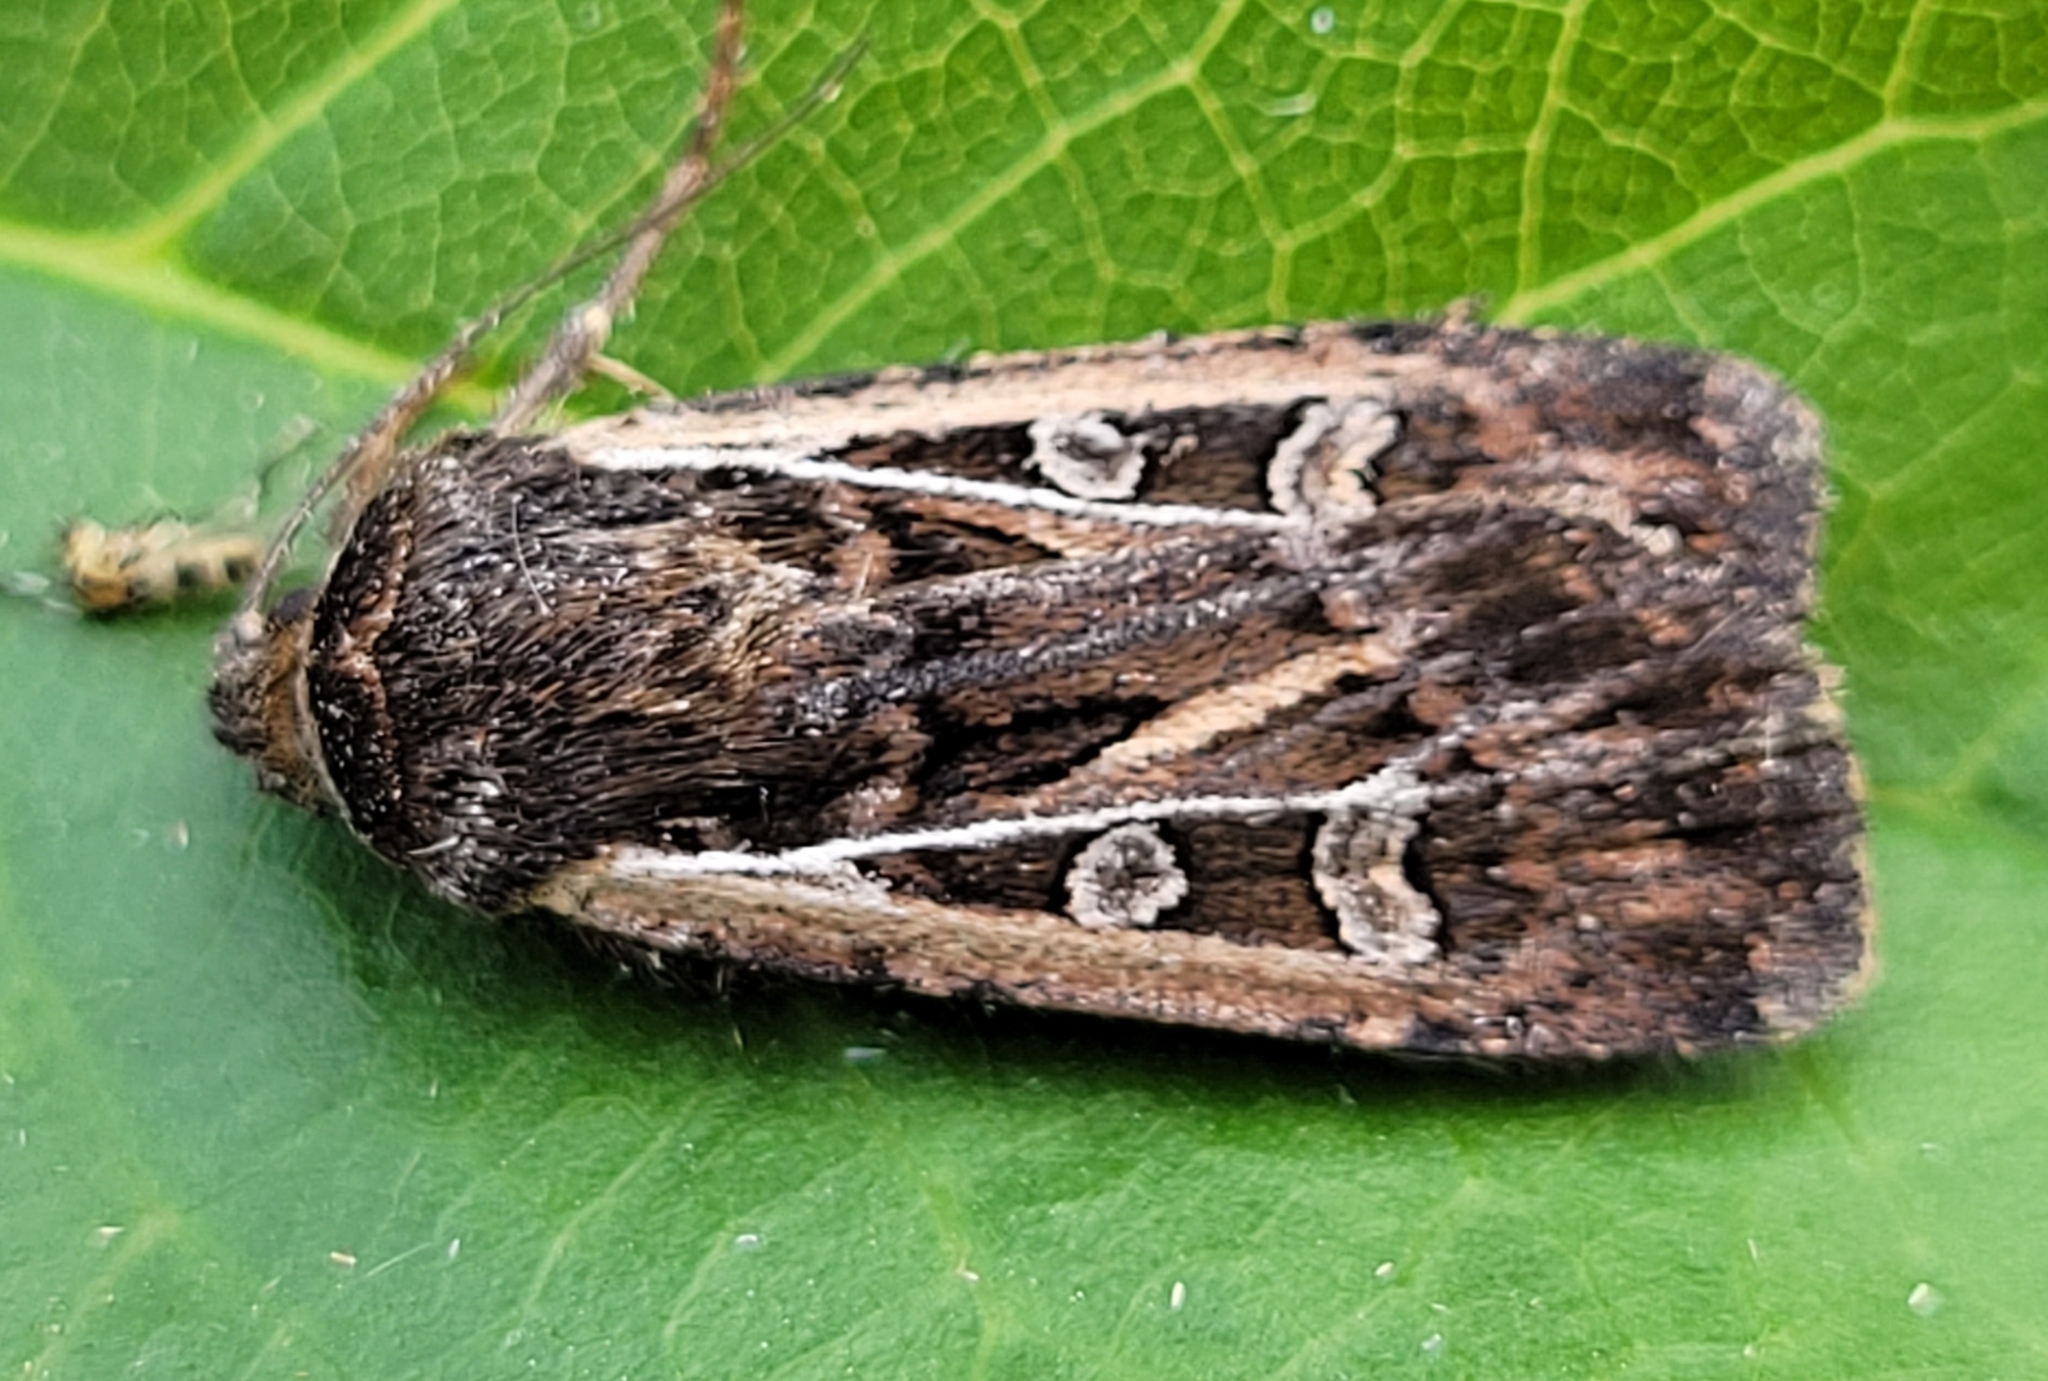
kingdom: Animalia
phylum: Arthropoda
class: Insecta
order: Lepidoptera
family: Noctuidae
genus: Euxoa
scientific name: Euxoa flavicollis
